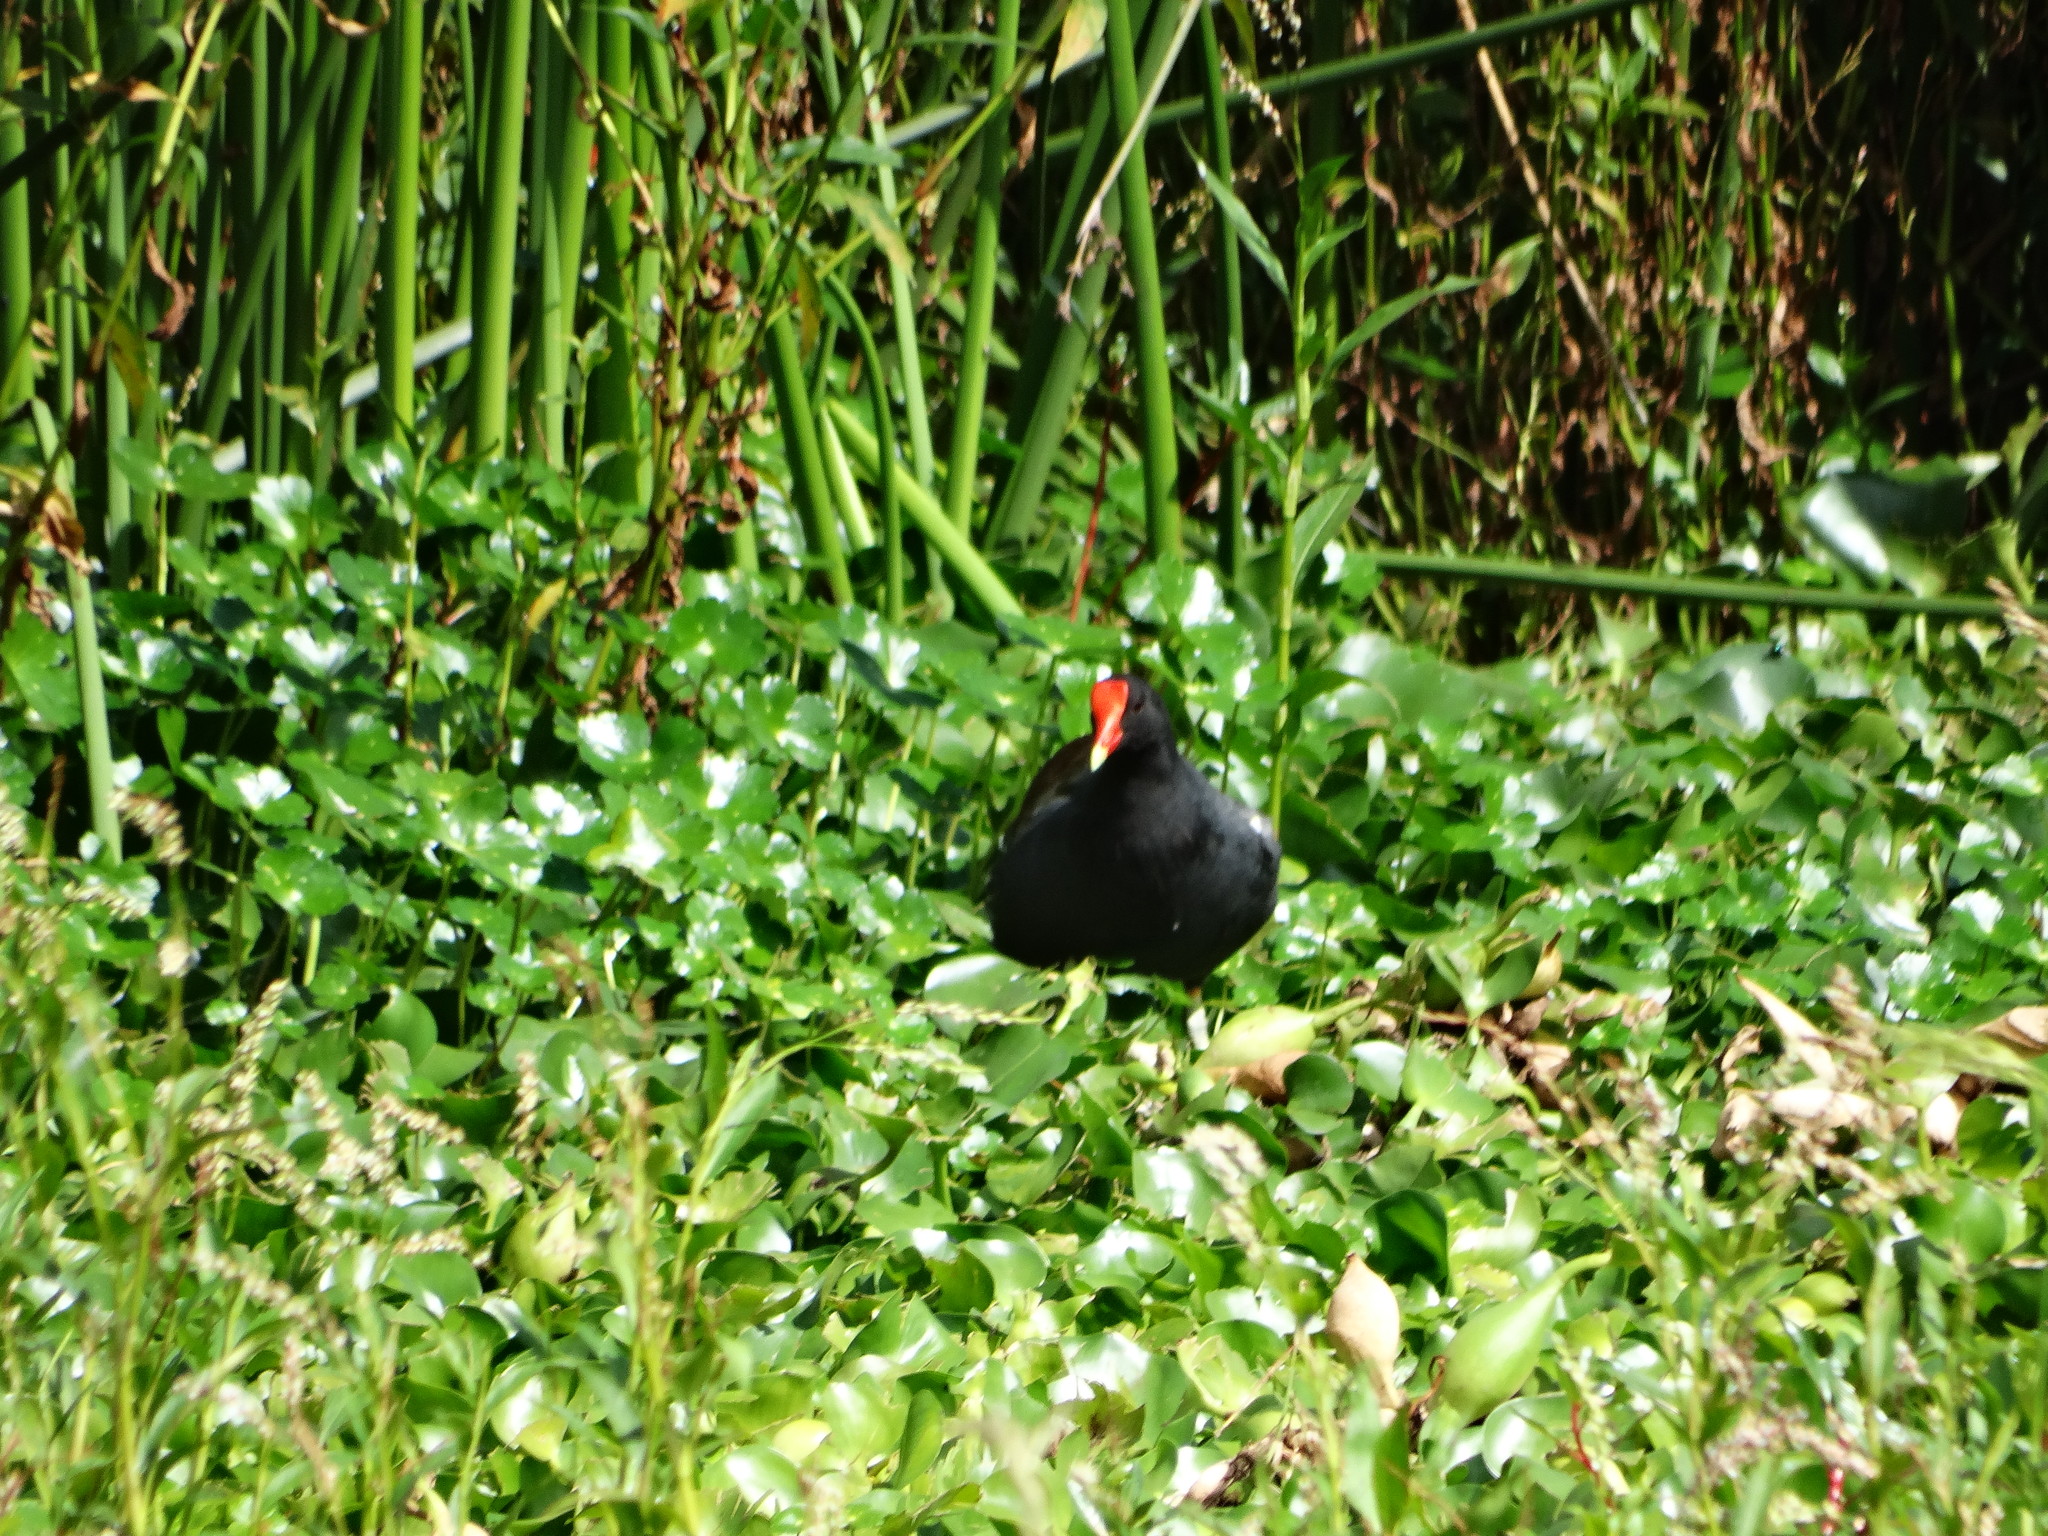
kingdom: Animalia
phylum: Chordata
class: Aves
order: Gruiformes
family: Rallidae
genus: Gallinula
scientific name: Gallinula chloropus
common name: Common moorhen
